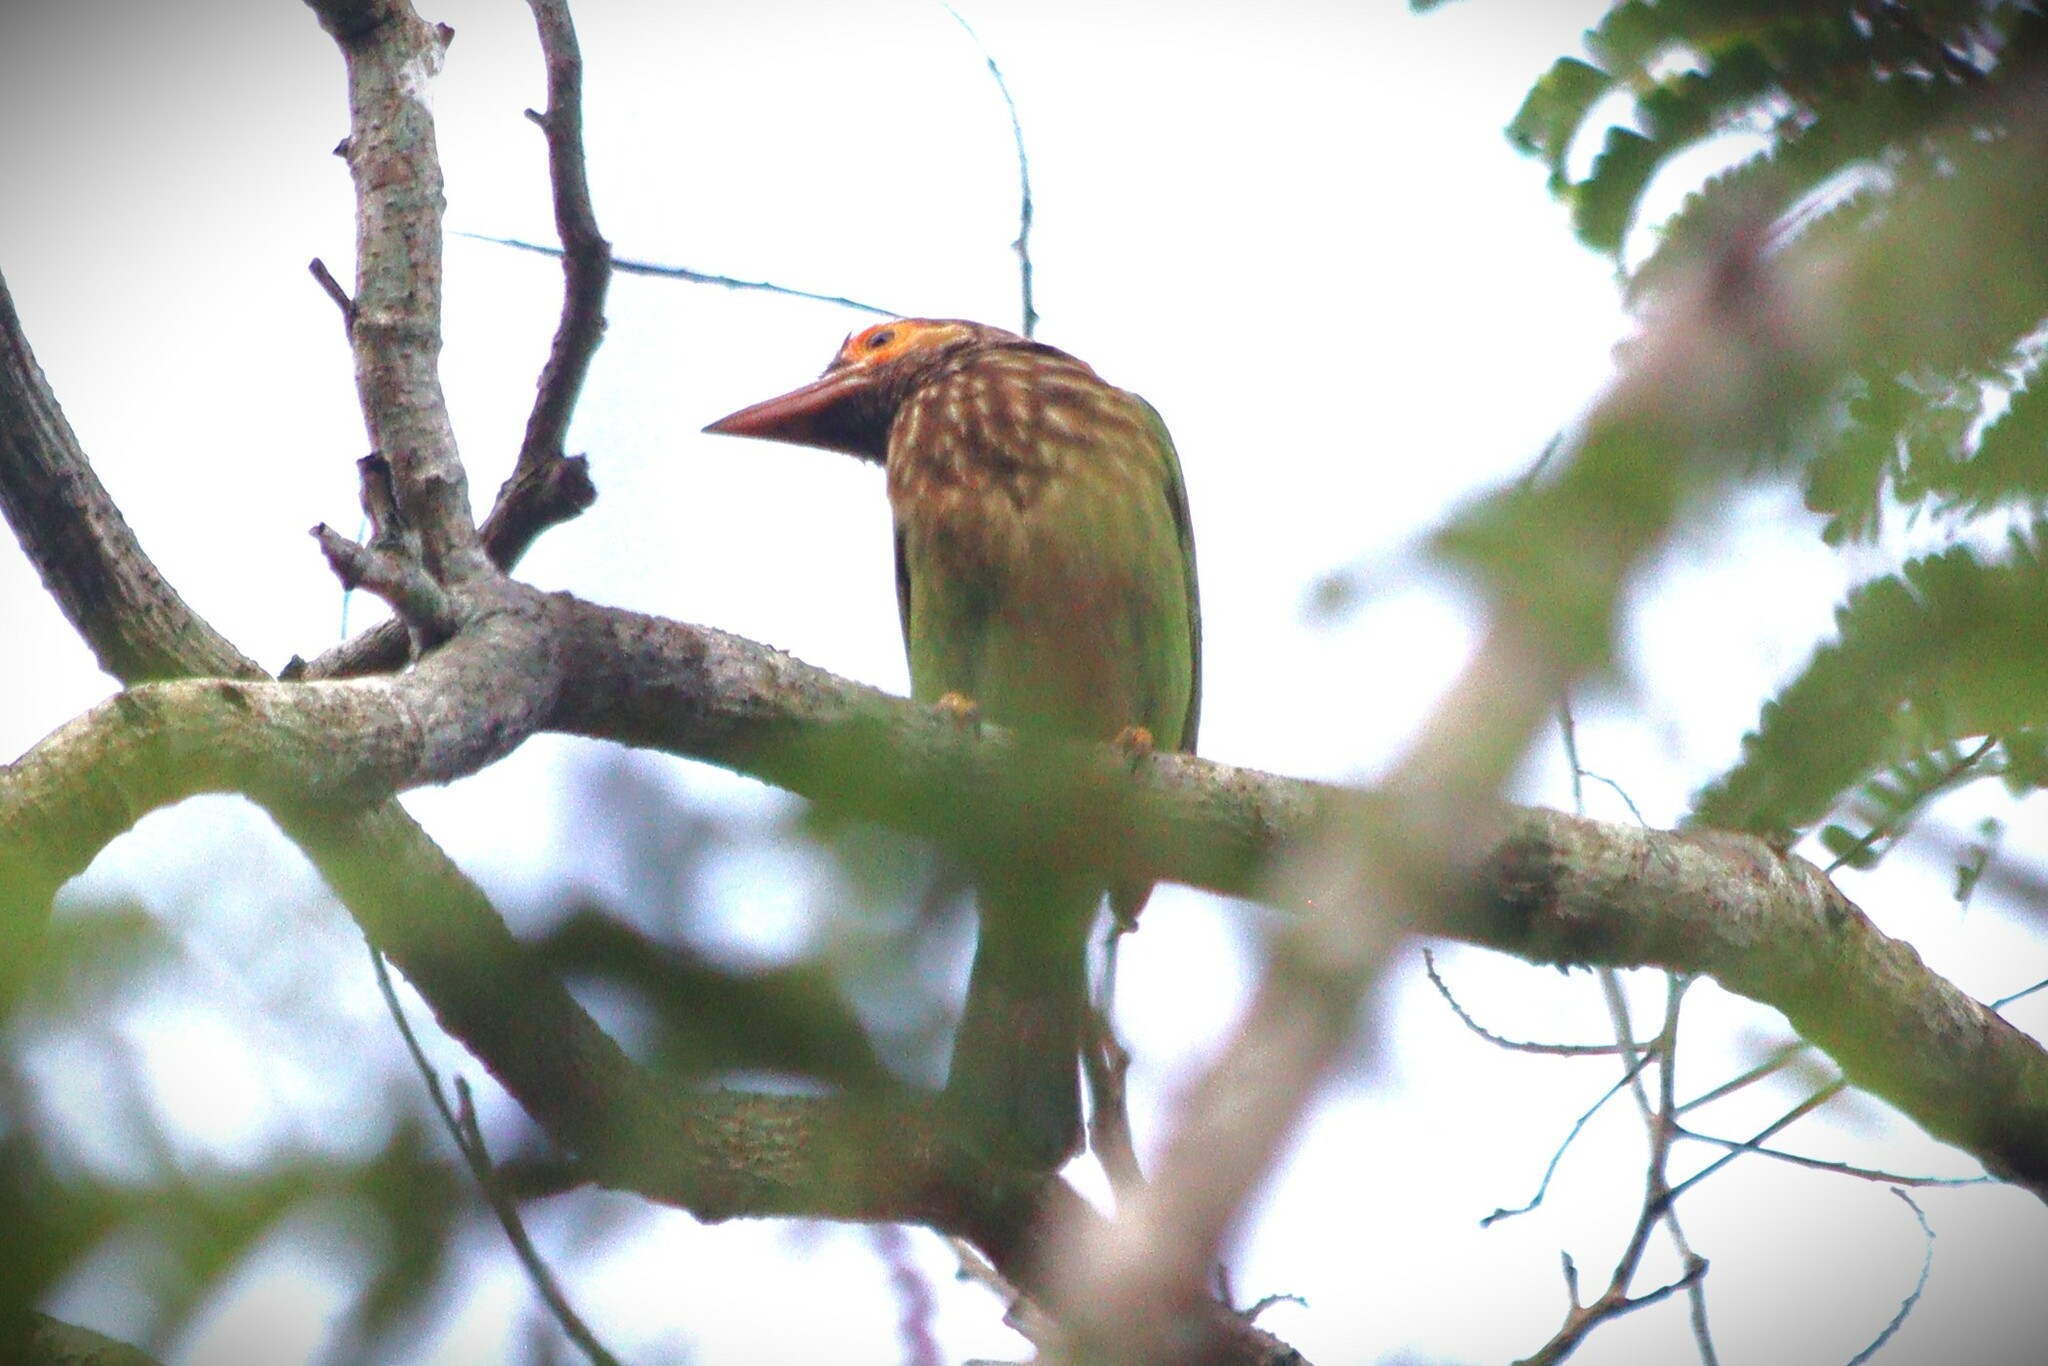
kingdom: Animalia
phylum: Chordata
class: Aves
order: Piciformes
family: Megalaimidae
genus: Psilopogon
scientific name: Psilopogon zeylanicus
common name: Brown-headed barbet
